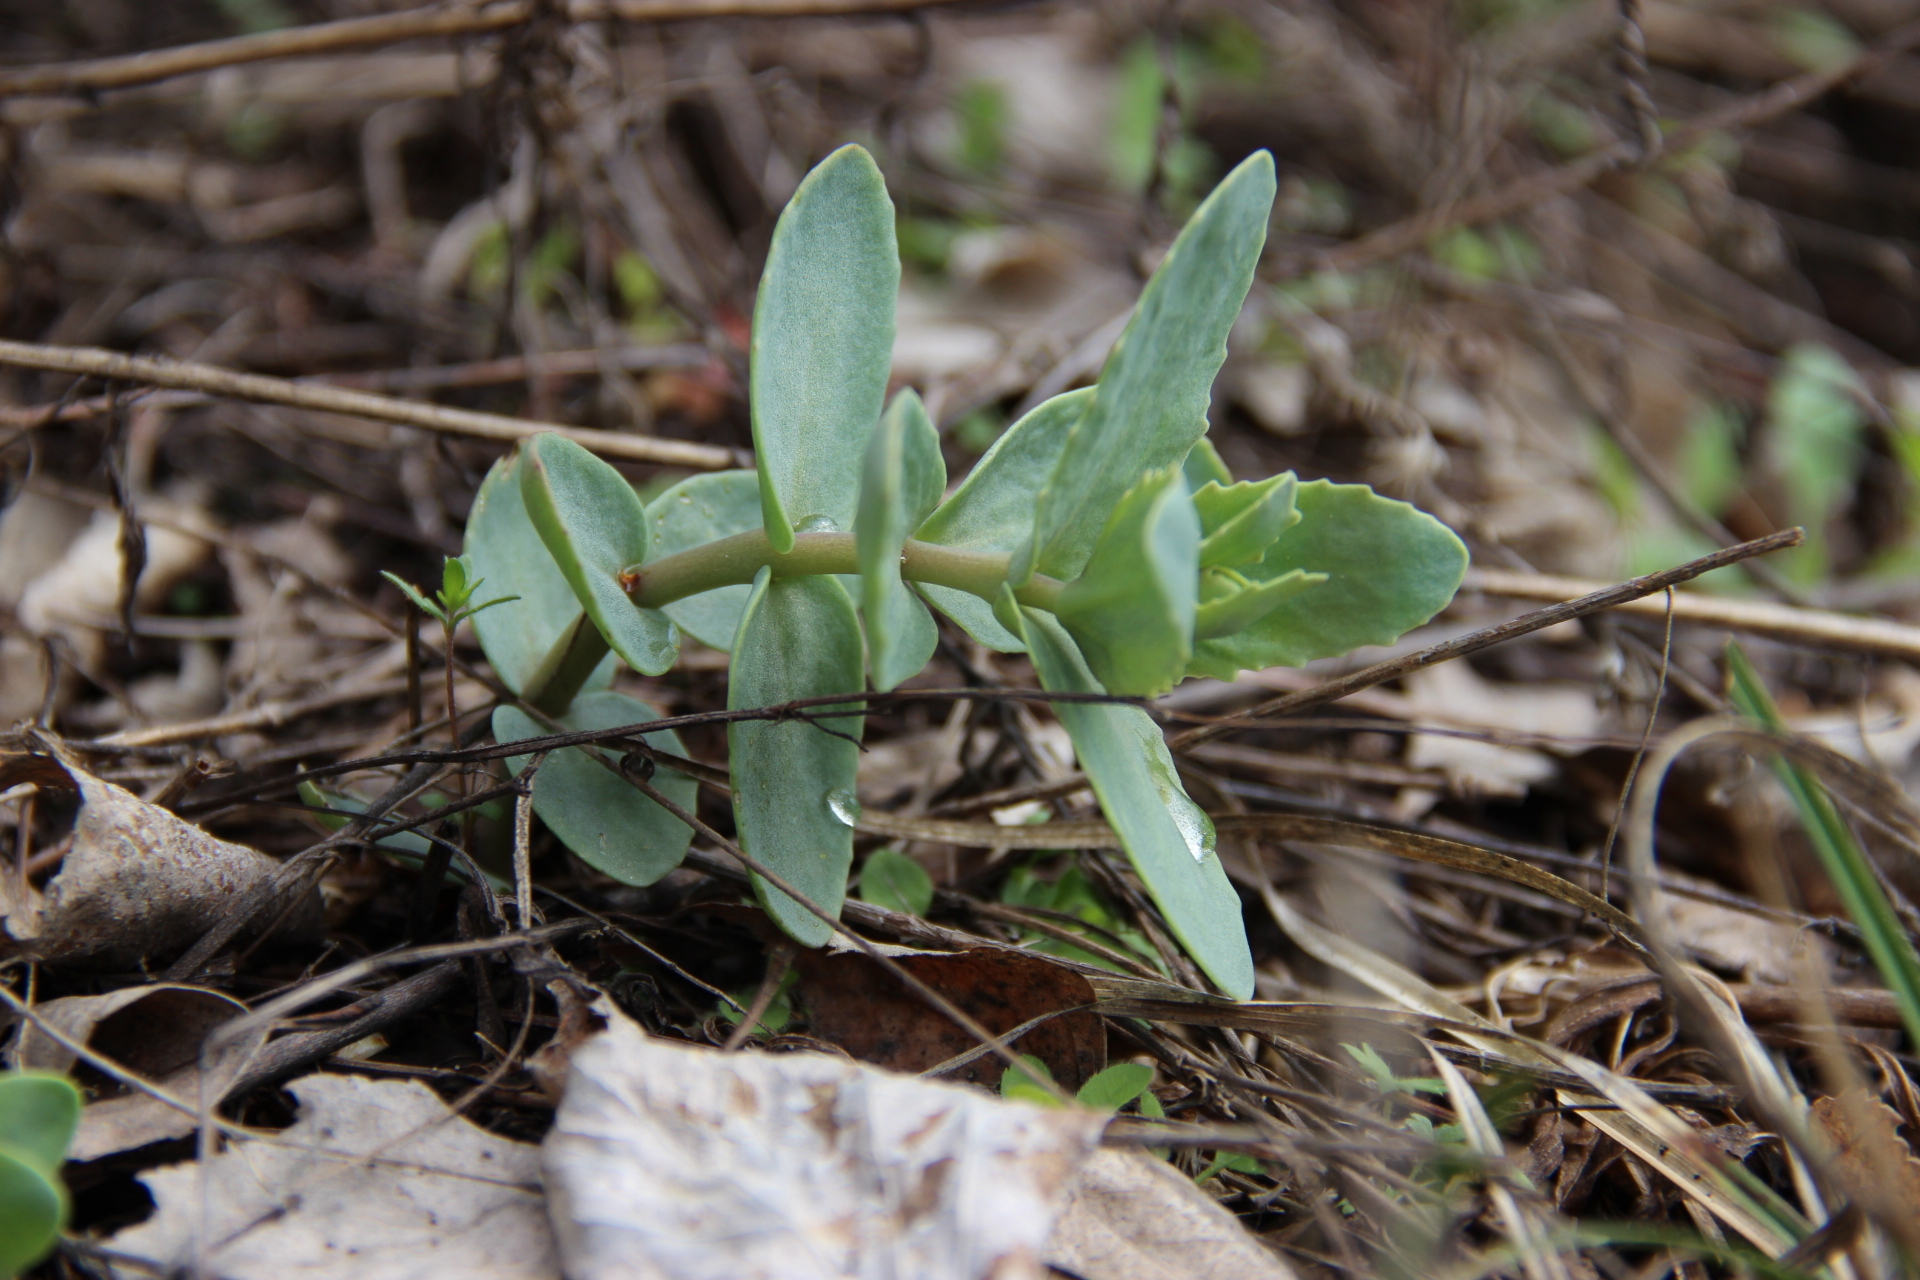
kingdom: Plantae
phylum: Tracheophyta
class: Magnoliopsida
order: Saxifragales
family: Crassulaceae
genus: Hylotelephium
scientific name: Hylotelephium maximum
